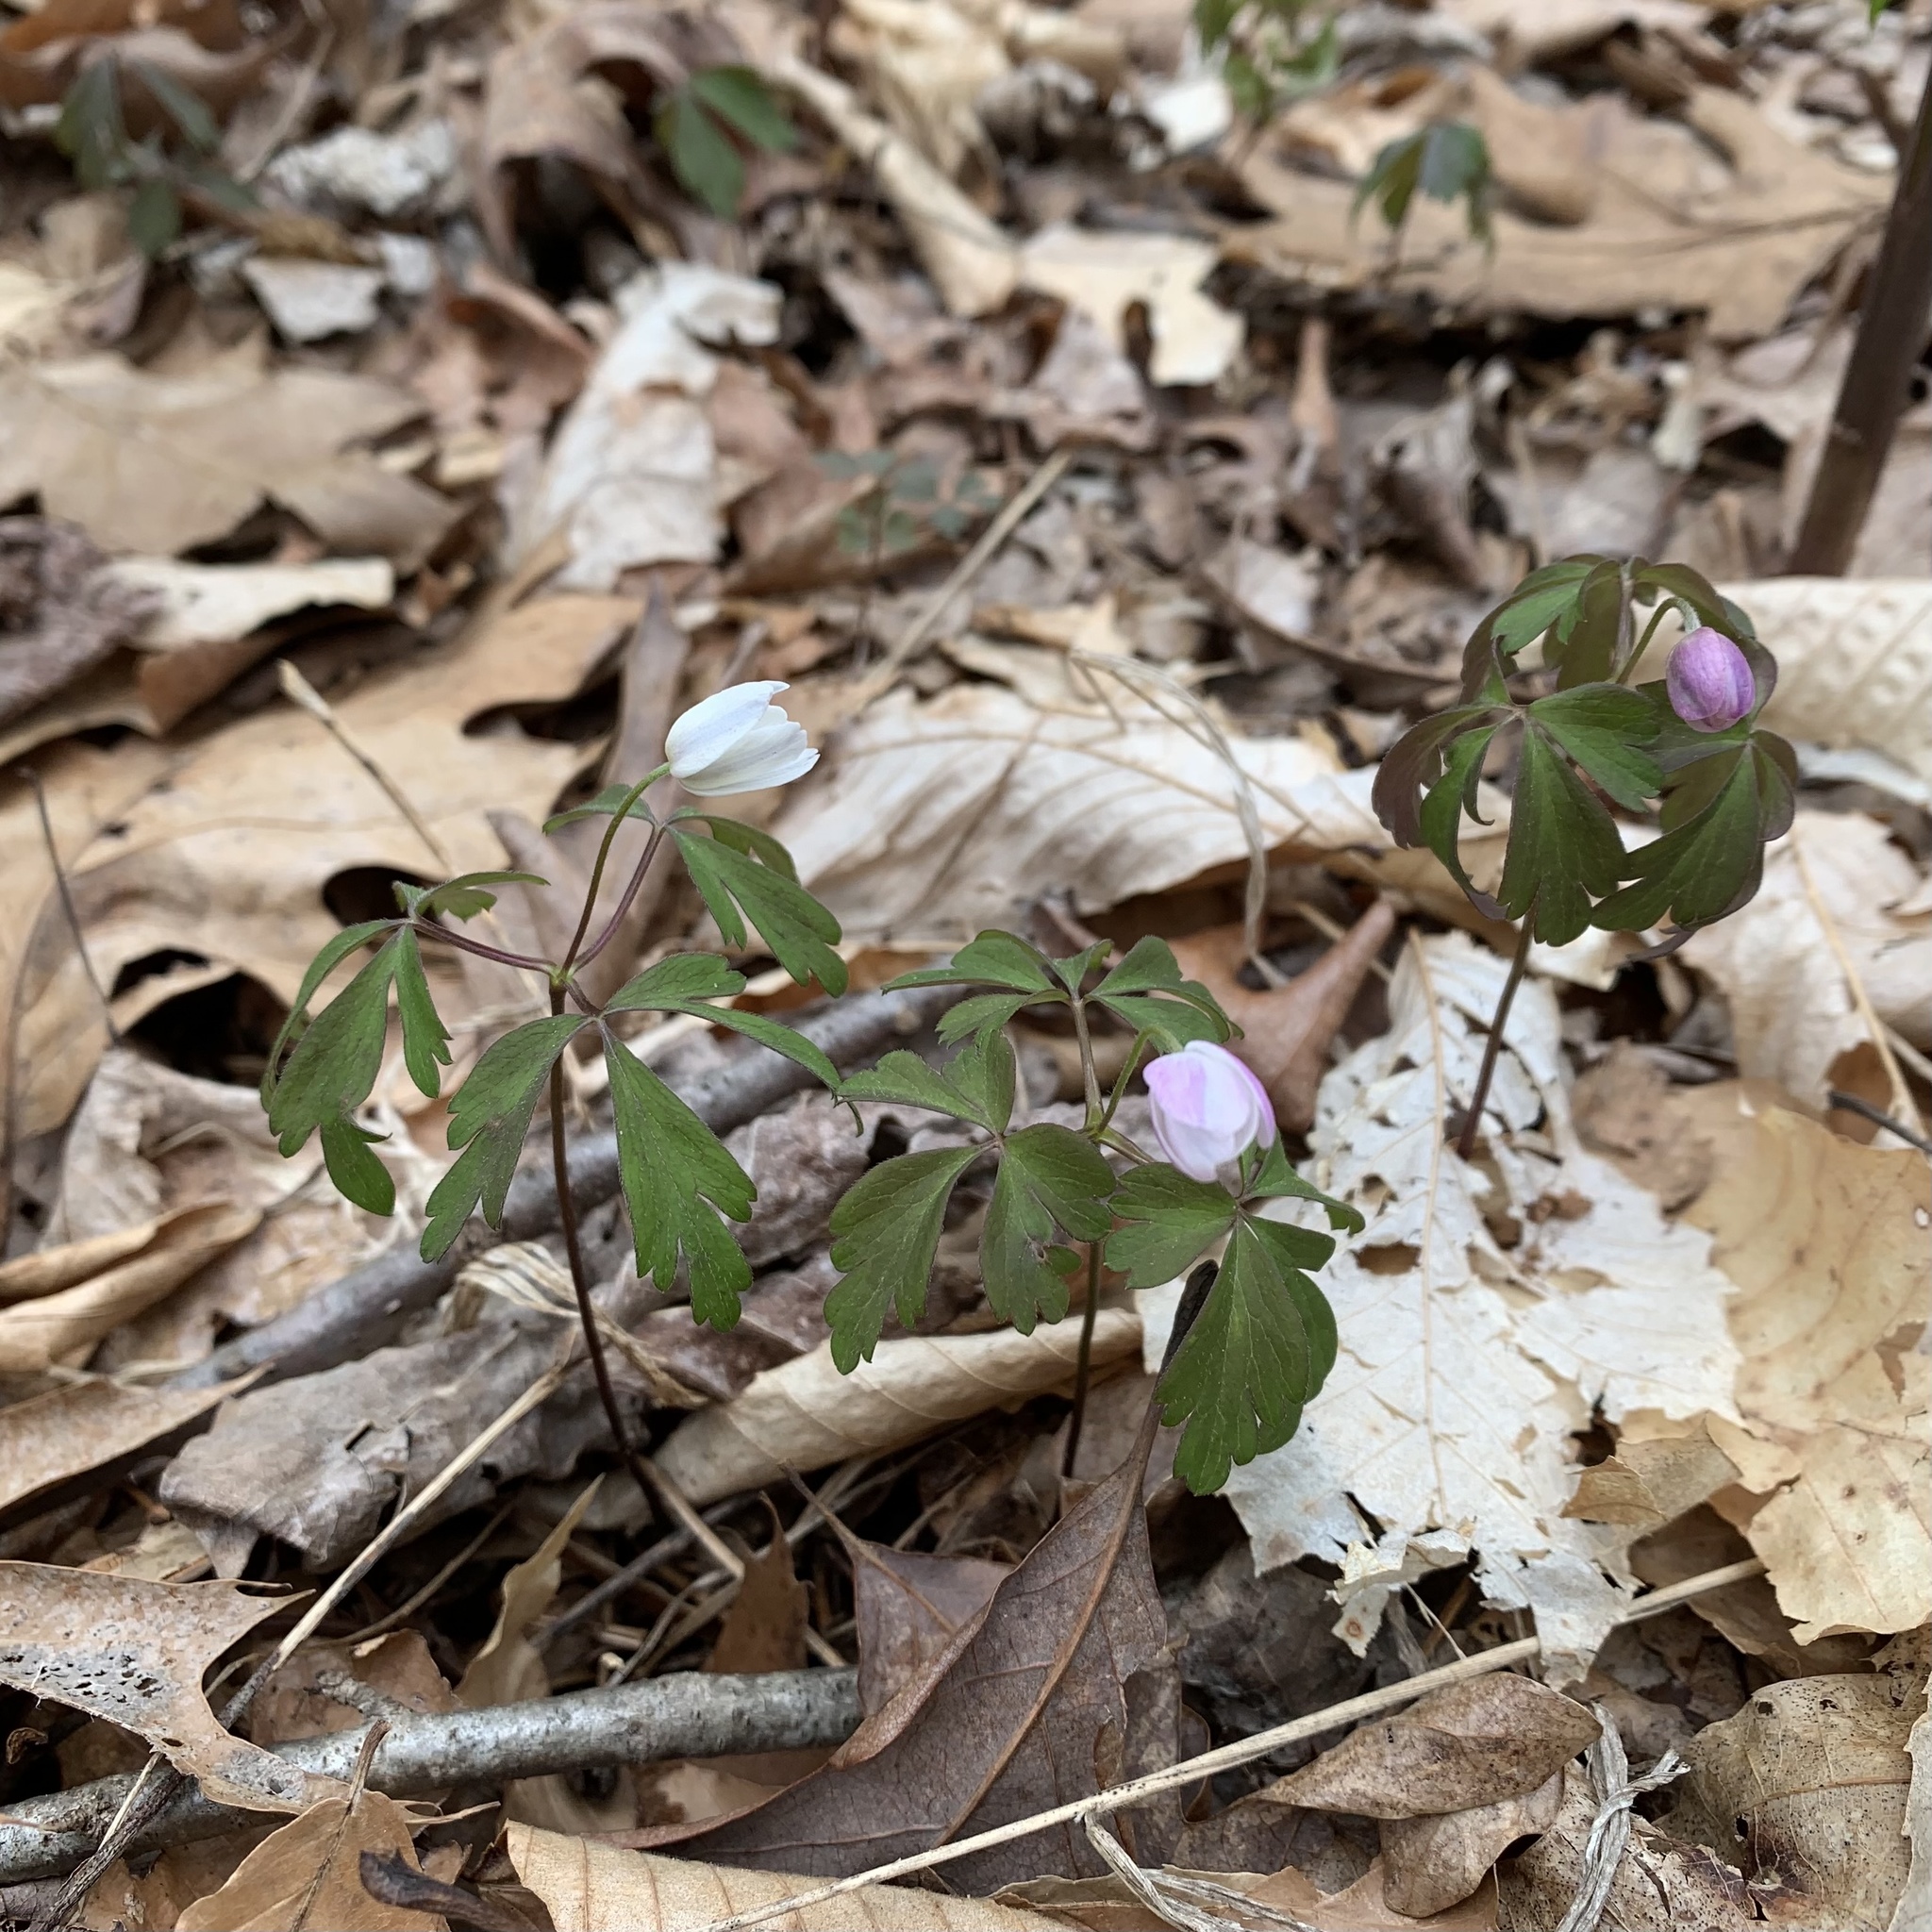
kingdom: Plantae
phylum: Tracheophyta
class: Magnoliopsida
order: Ranunculales
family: Ranunculaceae
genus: Anemone
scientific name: Anemone quinquefolia
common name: Wood anemone
